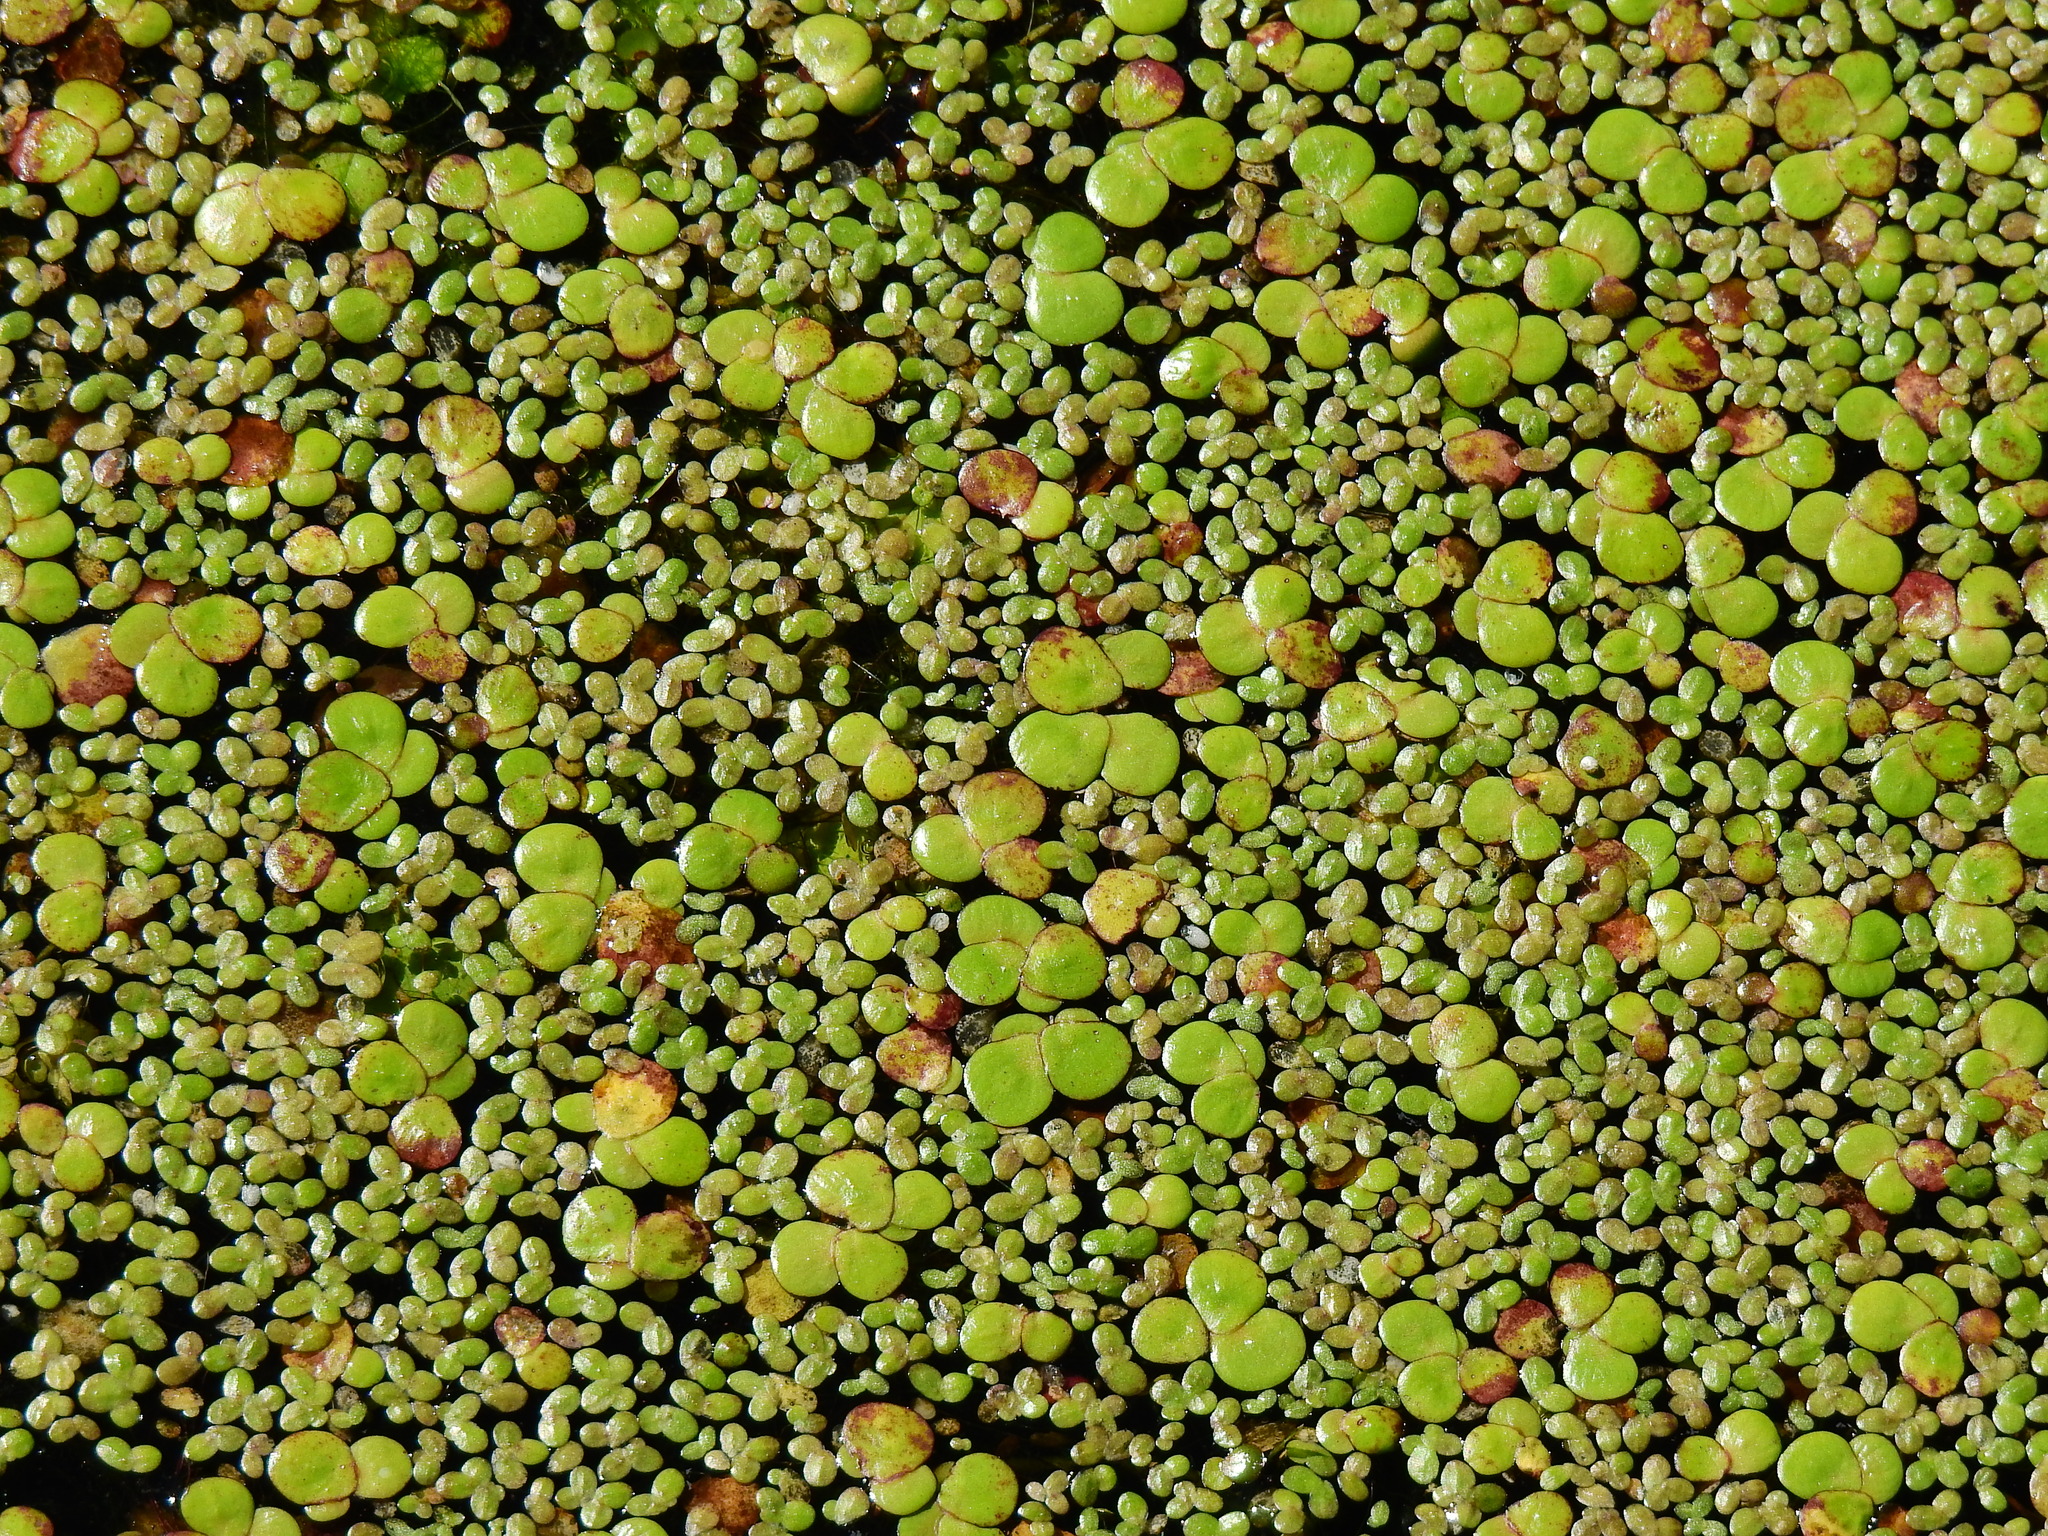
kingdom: Plantae
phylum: Tracheophyta
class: Liliopsida
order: Alismatales
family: Araceae
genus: Spirodela
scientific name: Spirodela polyrhiza
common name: Great duckweed
